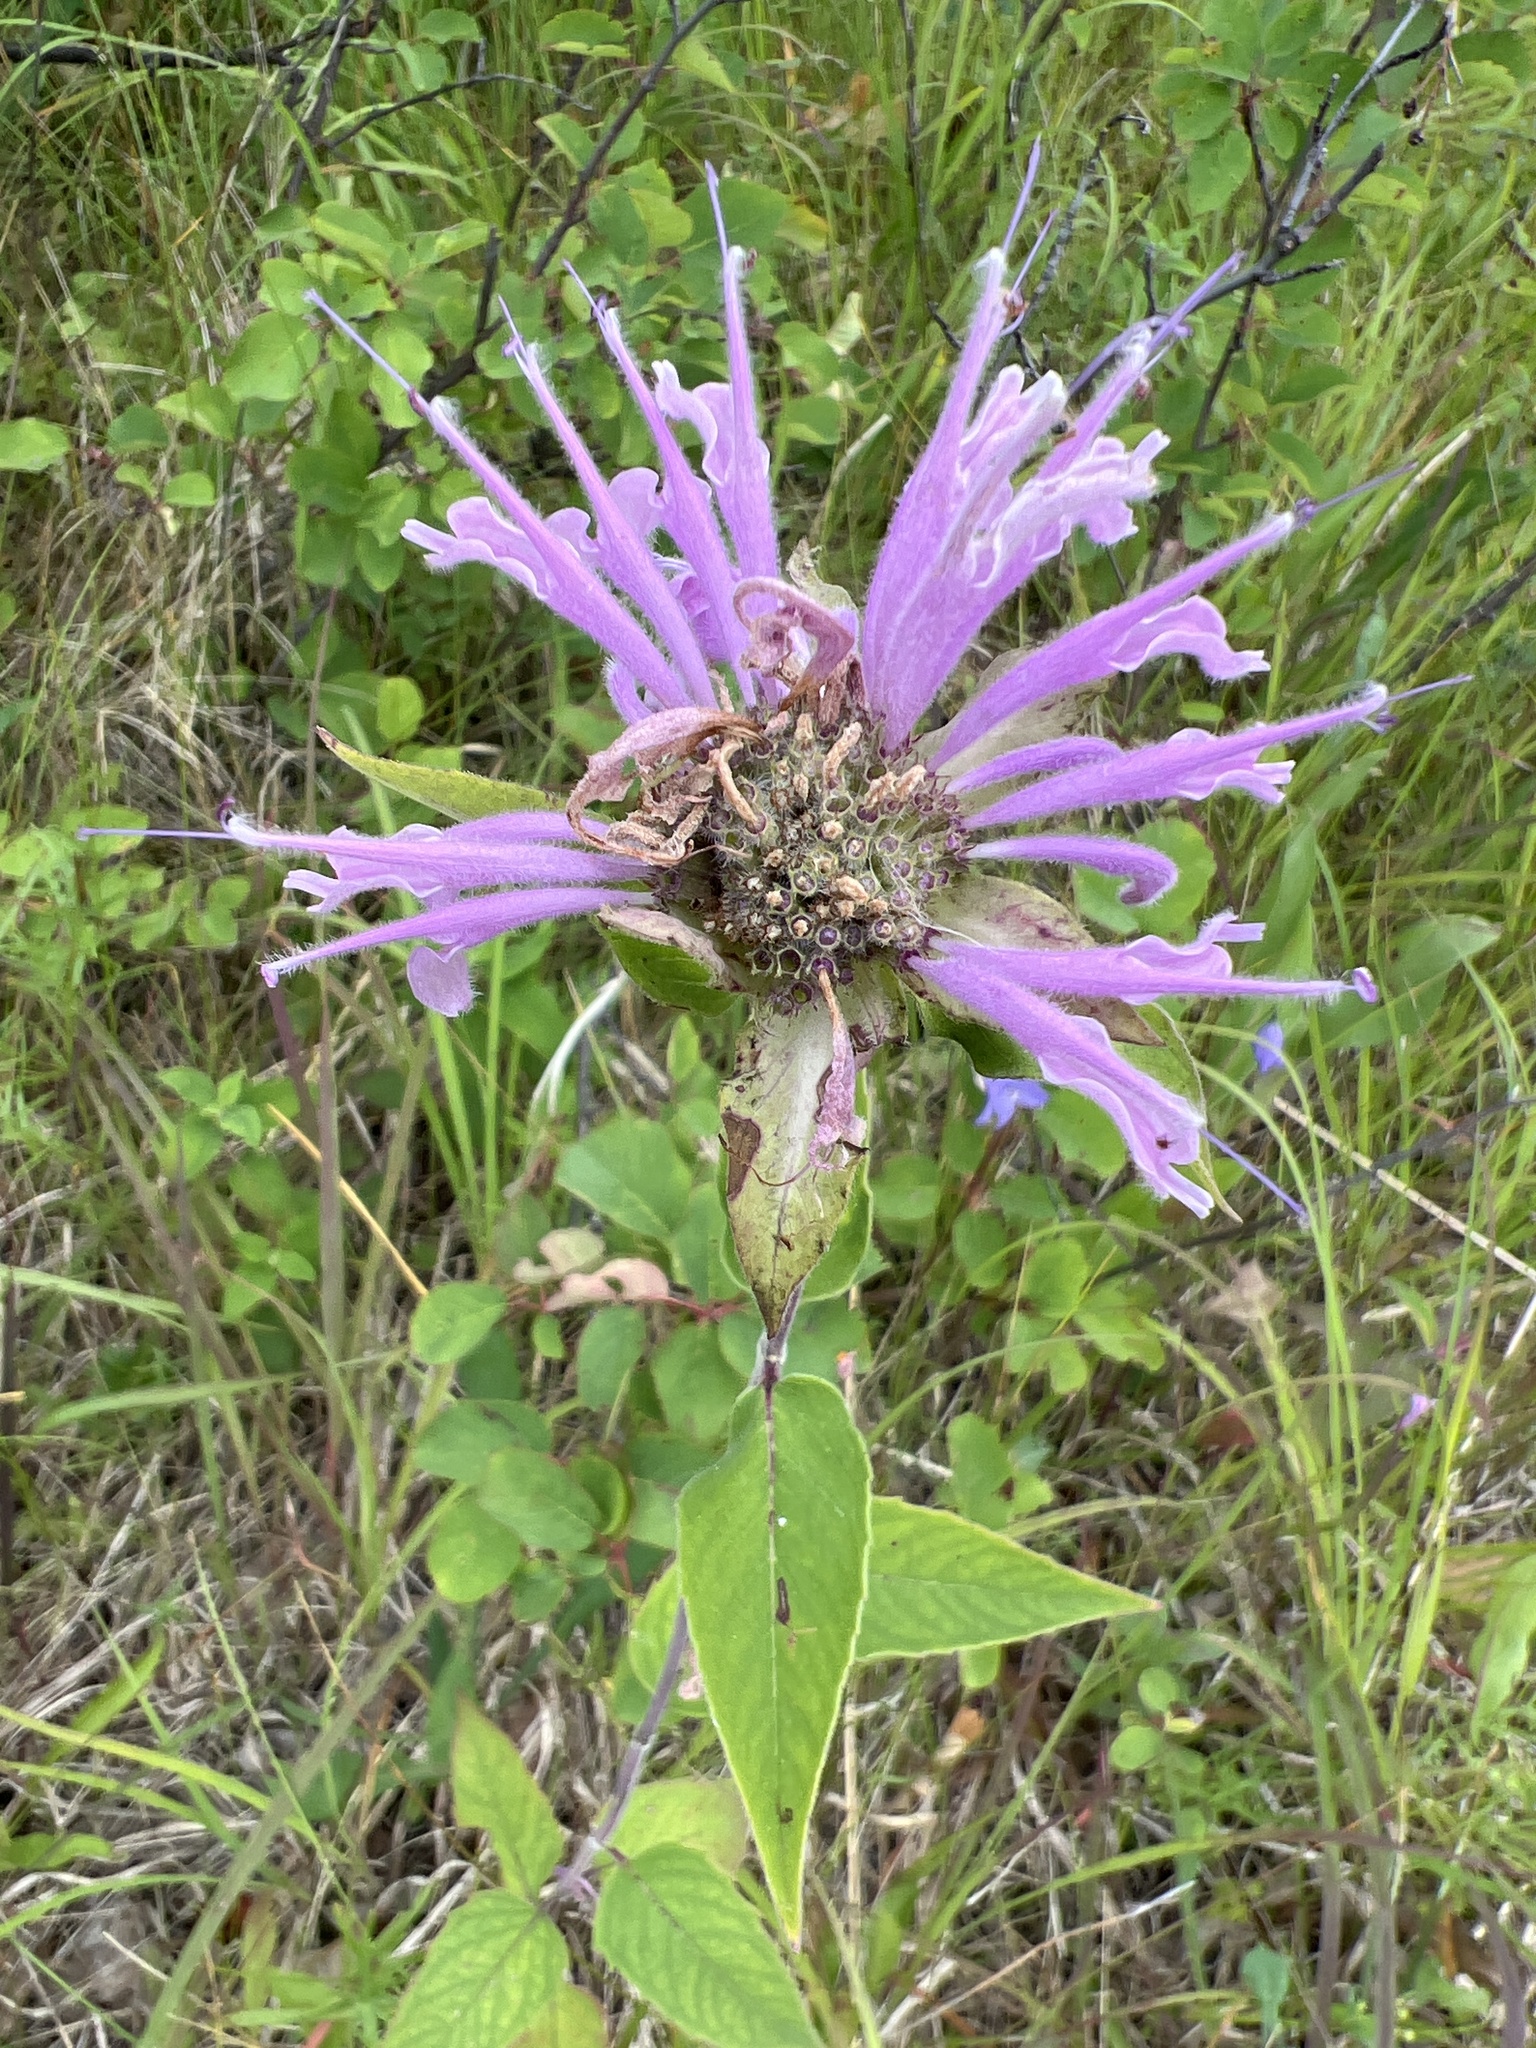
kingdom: Plantae
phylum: Tracheophyta
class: Magnoliopsida
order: Lamiales
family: Lamiaceae
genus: Monarda
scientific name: Monarda fistulosa
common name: Purple beebalm
